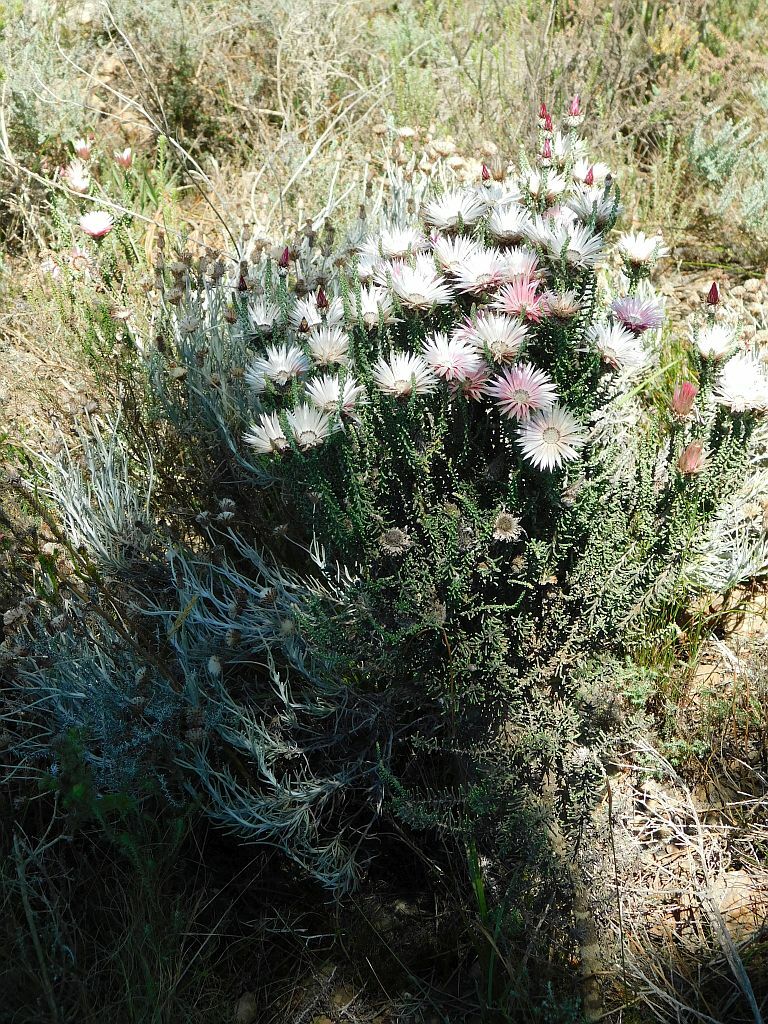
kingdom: Plantae
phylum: Tracheophyta
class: Magnoliopsida
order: Asterales
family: Asteraceae
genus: Phaenocoma
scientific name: Phaenocoma prolifera
